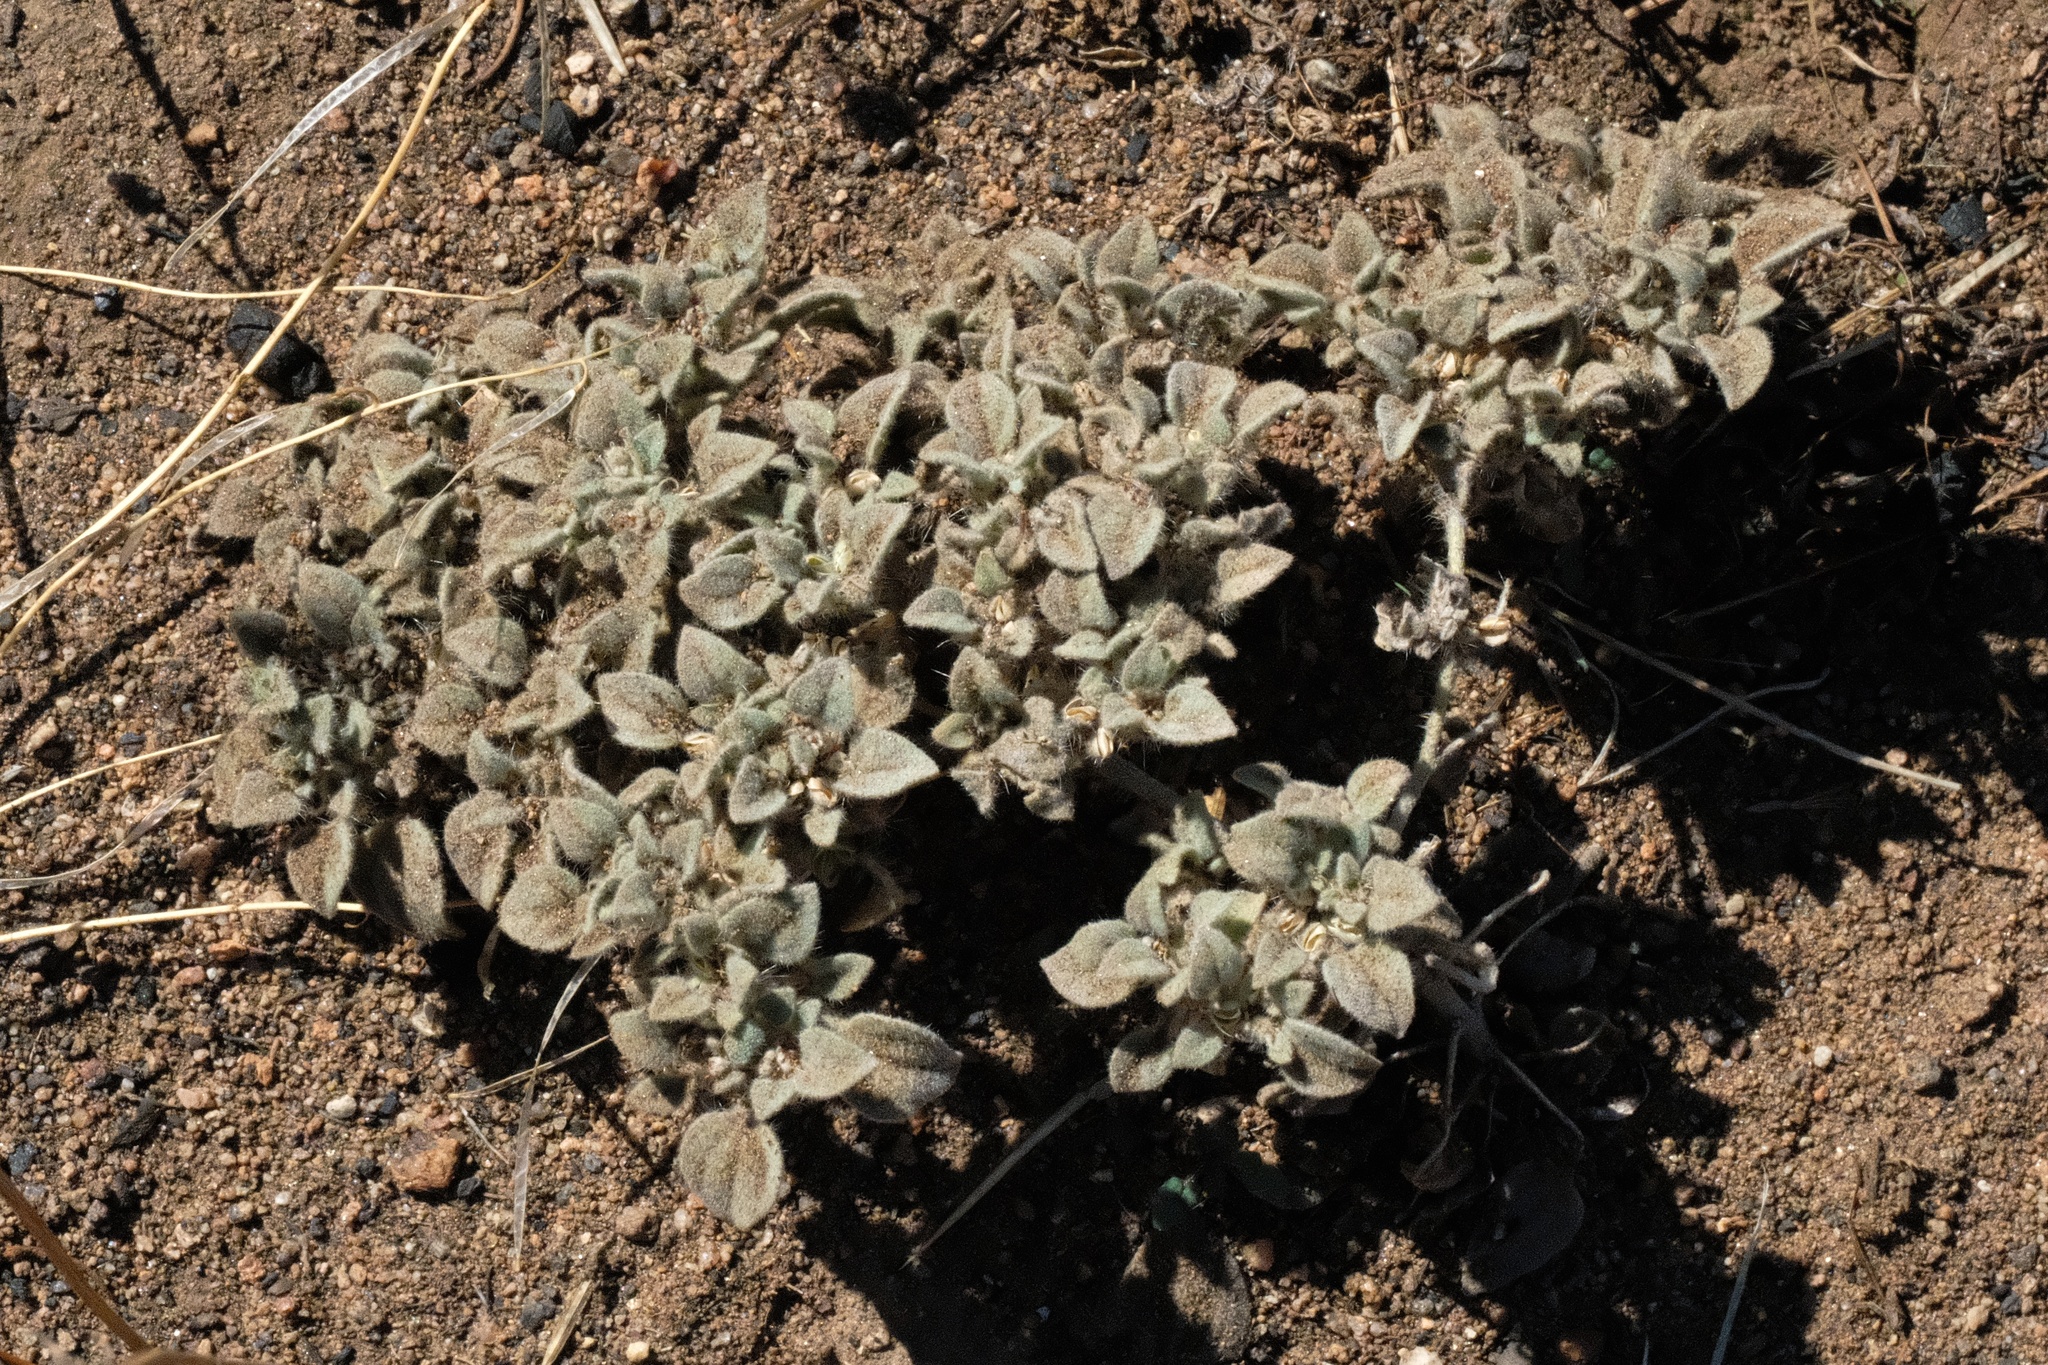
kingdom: Plantae
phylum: Tracheophyta
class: Magnoliopsida
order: Malpighiales
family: Euphorbiaceae
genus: Croton
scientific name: Croton setiger
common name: Dove weed
